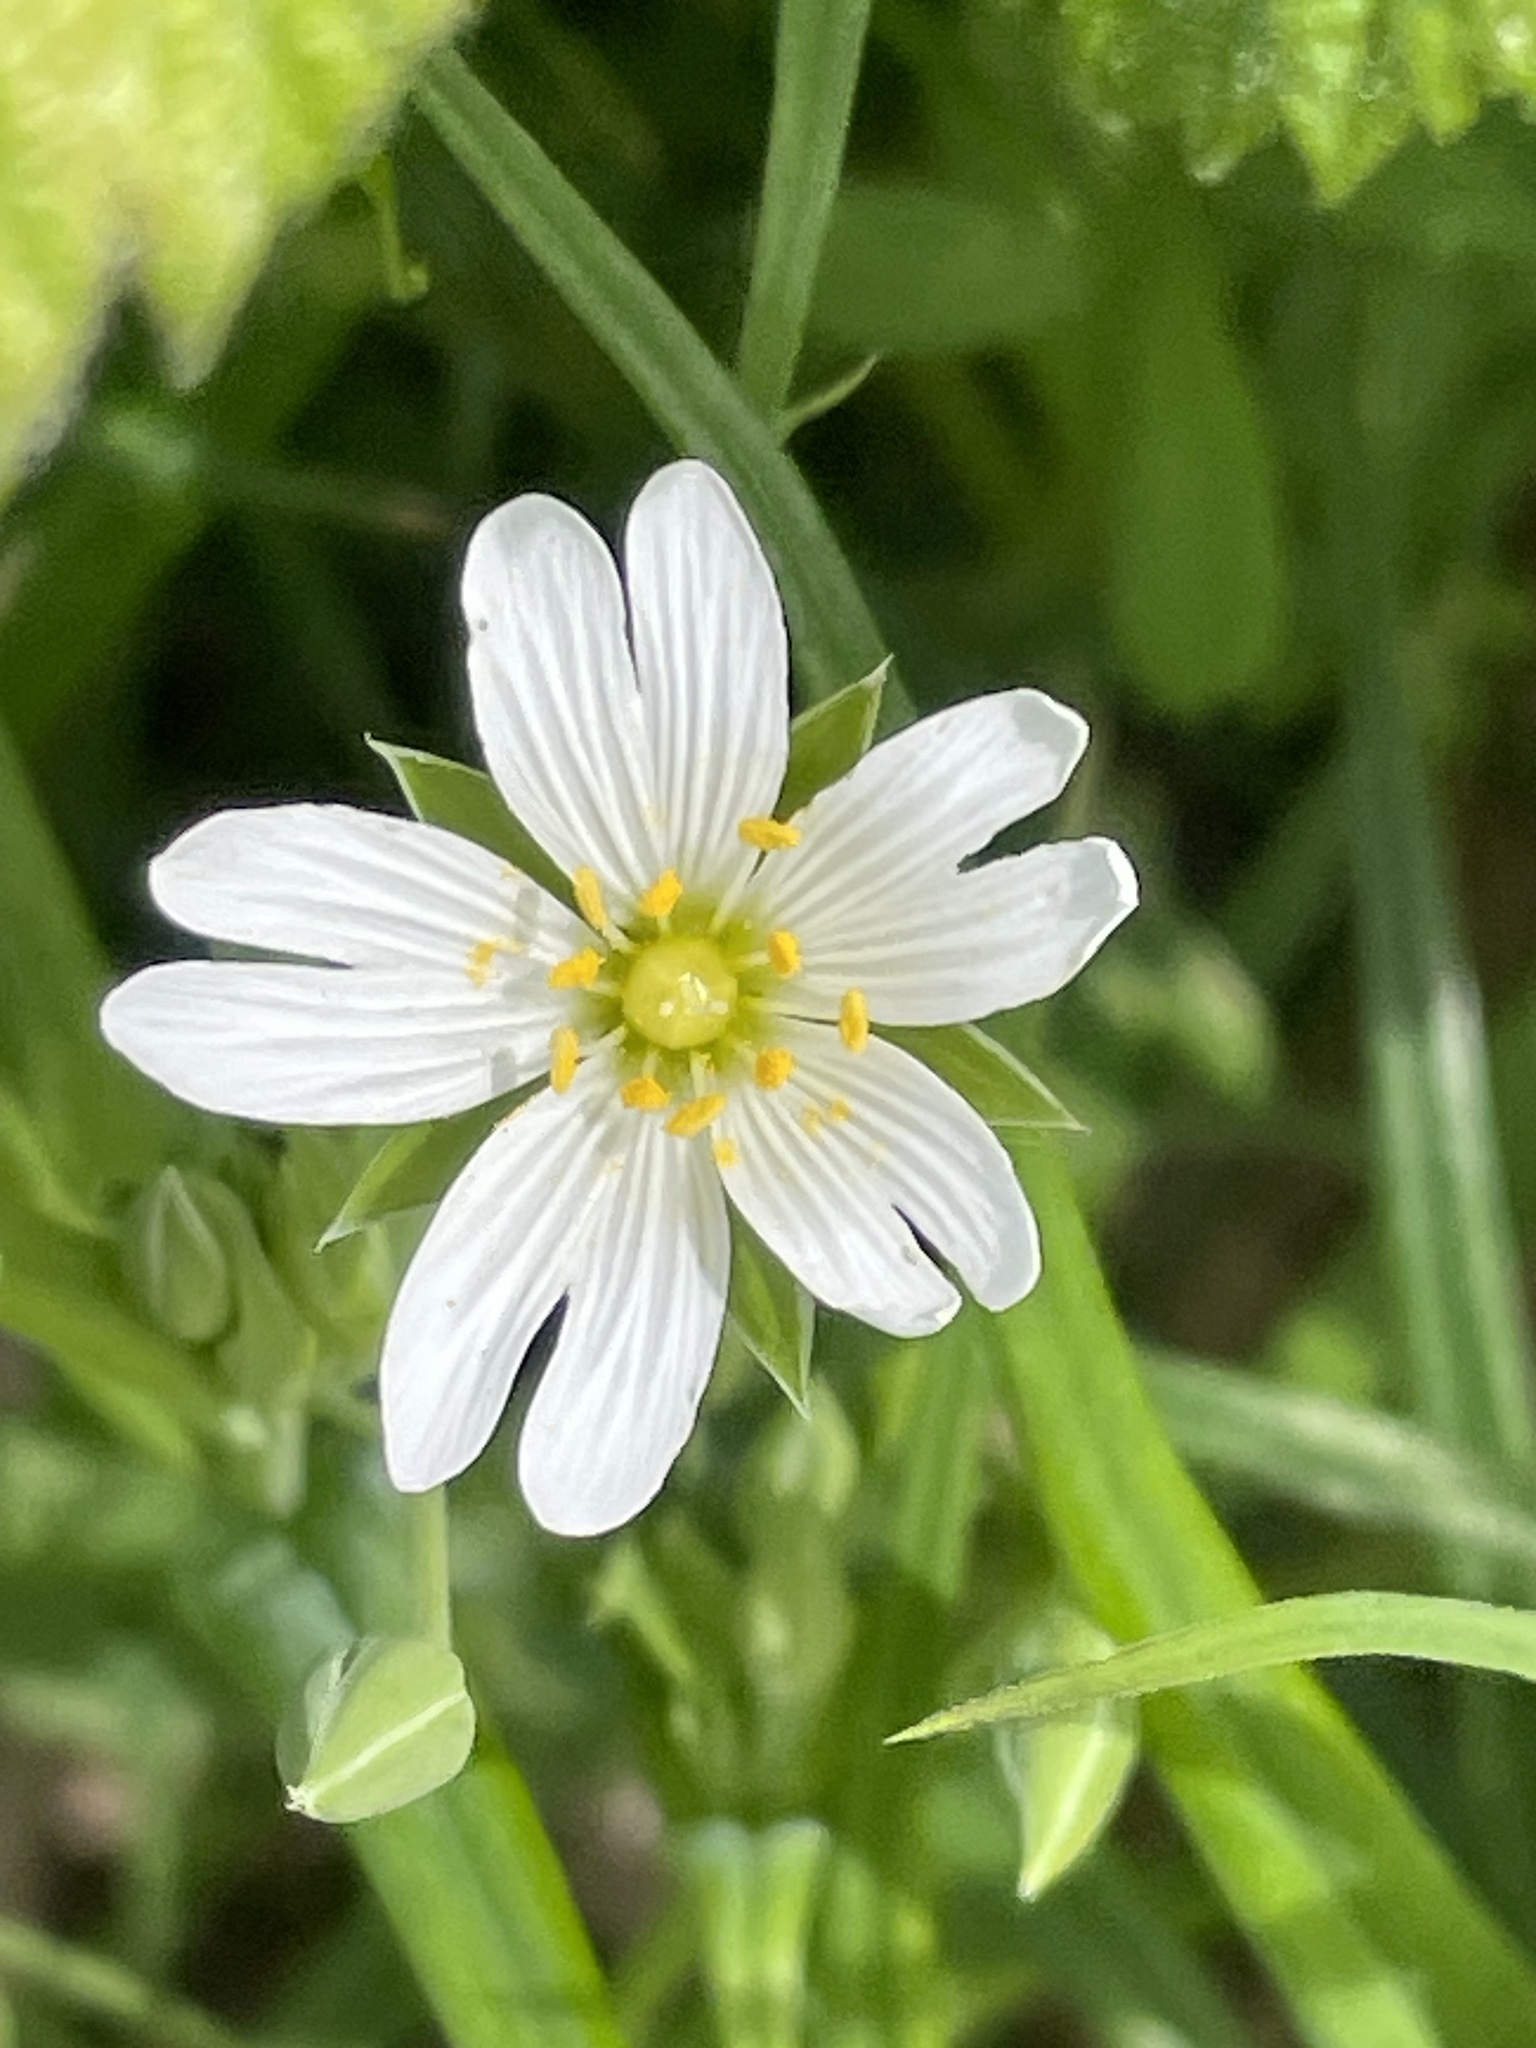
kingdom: Plantae
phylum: Tracheophyta
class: Magnoliopsida
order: Caryophyllales
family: Caryophyllaceae
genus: Rabelera
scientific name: Rabelera holostea
